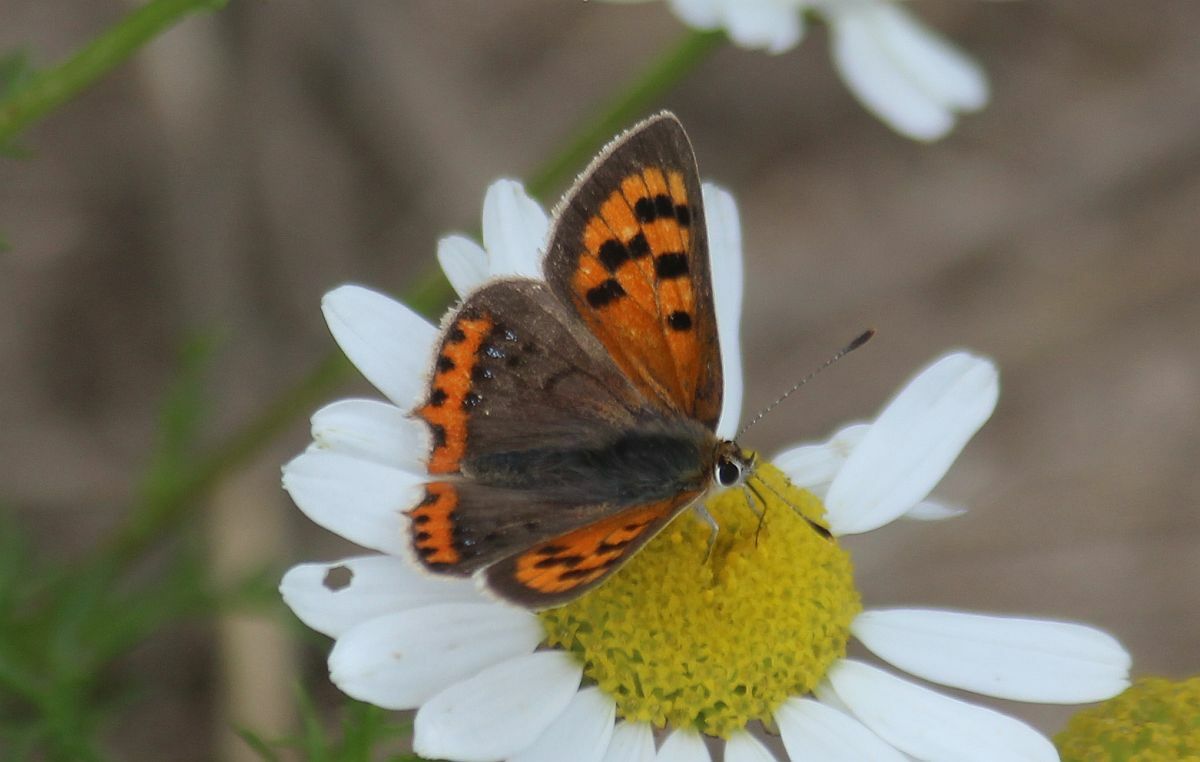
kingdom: Animalia
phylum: Arthropoda
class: Insecta
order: Lepidoptera
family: Lycaenidae
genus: Lycaena
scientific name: Lycaena phlaeas
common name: Small copper
